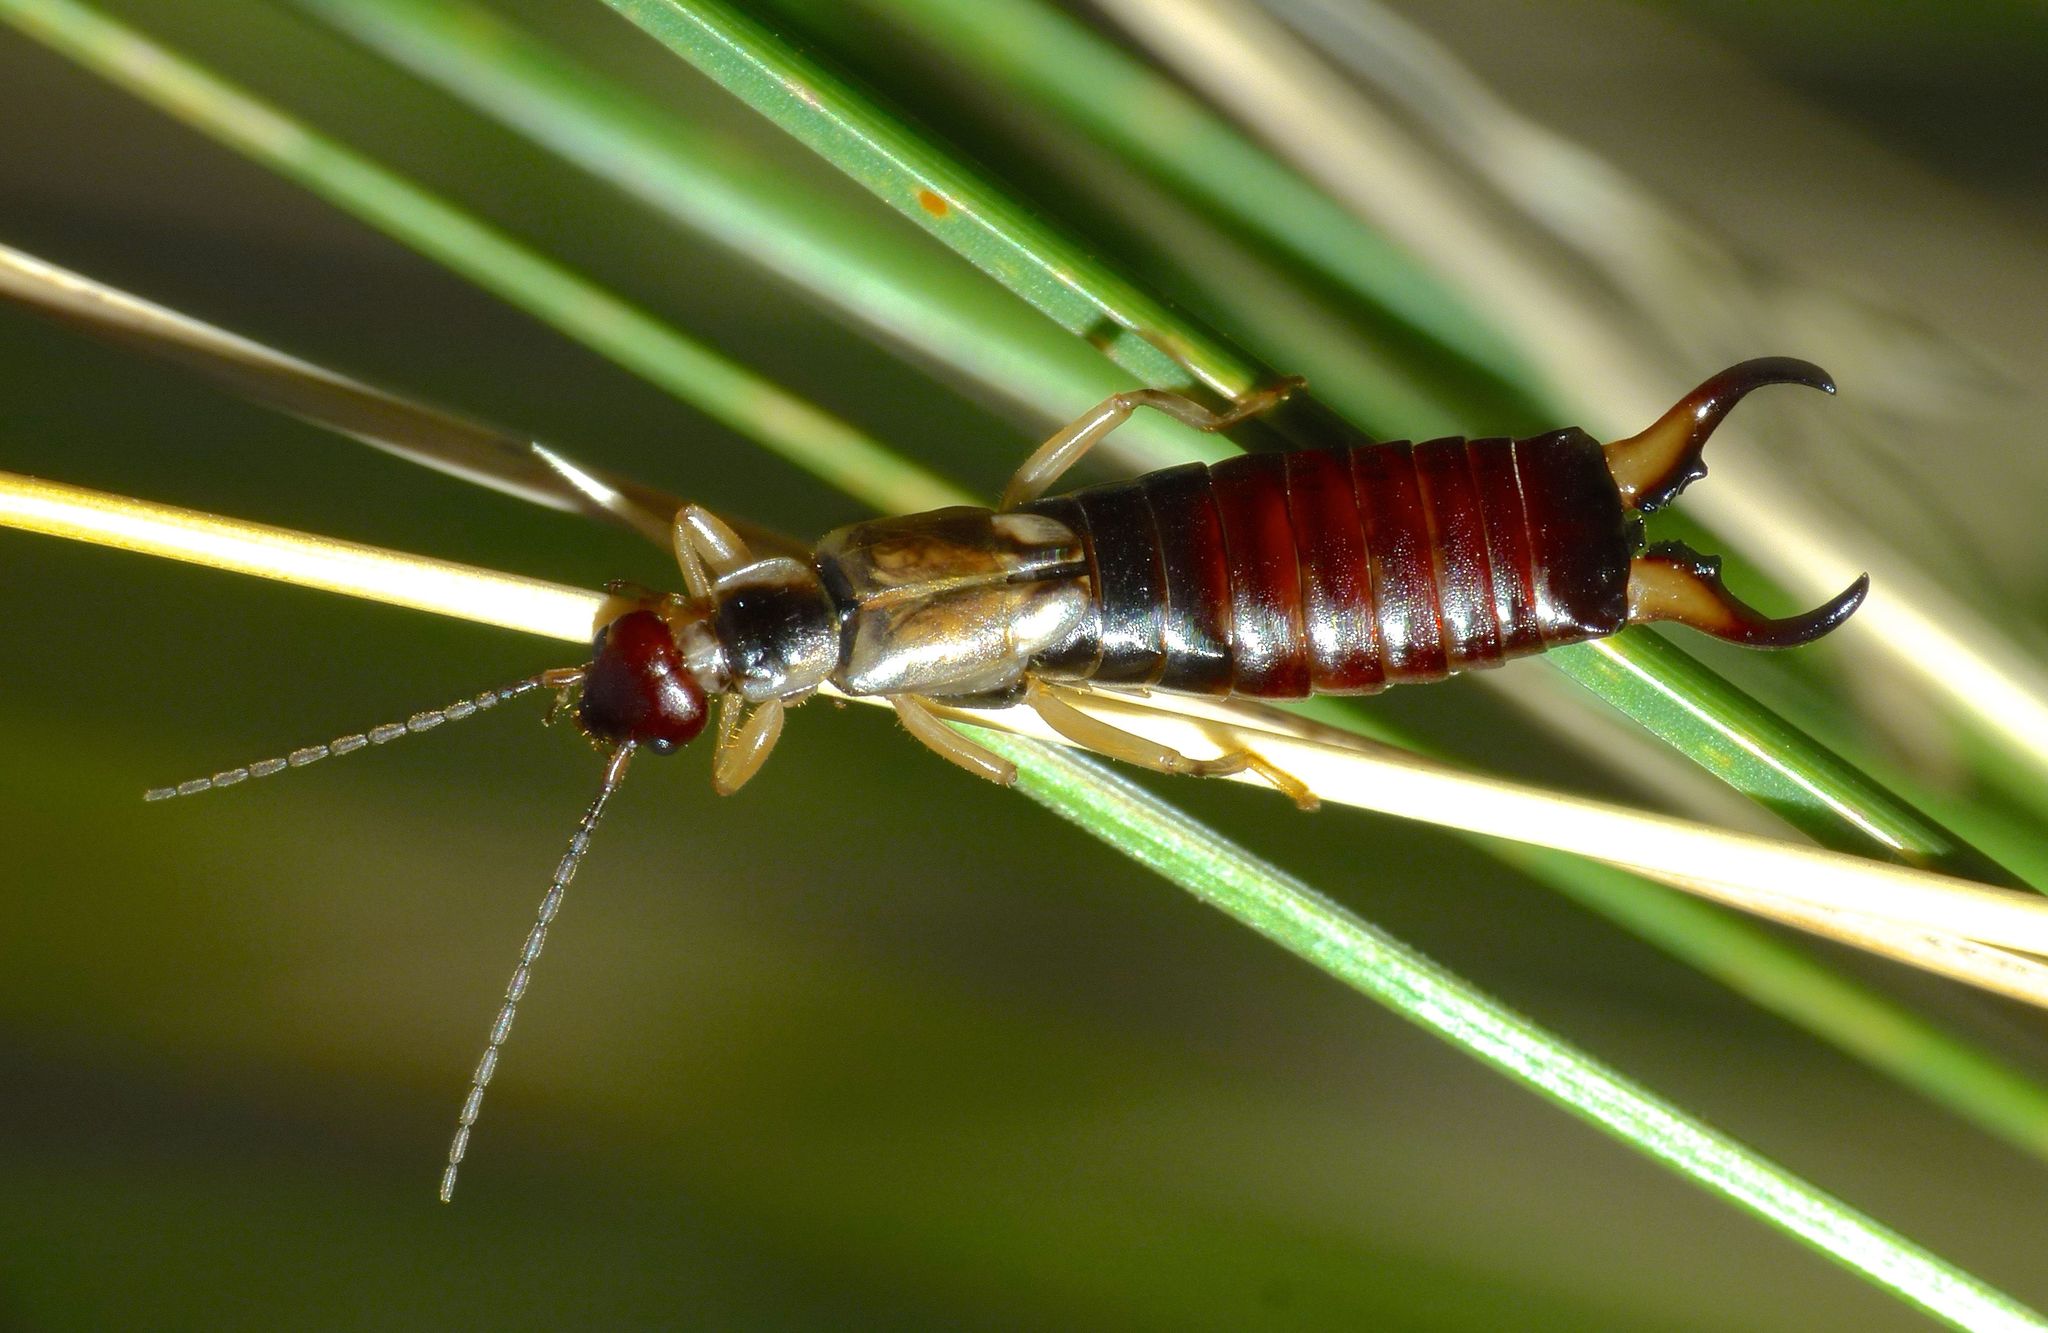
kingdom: Animalia
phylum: Arthropoda
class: Insecta
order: Dermaptera
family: Forficulidae
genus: Forficula
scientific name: Forficula
